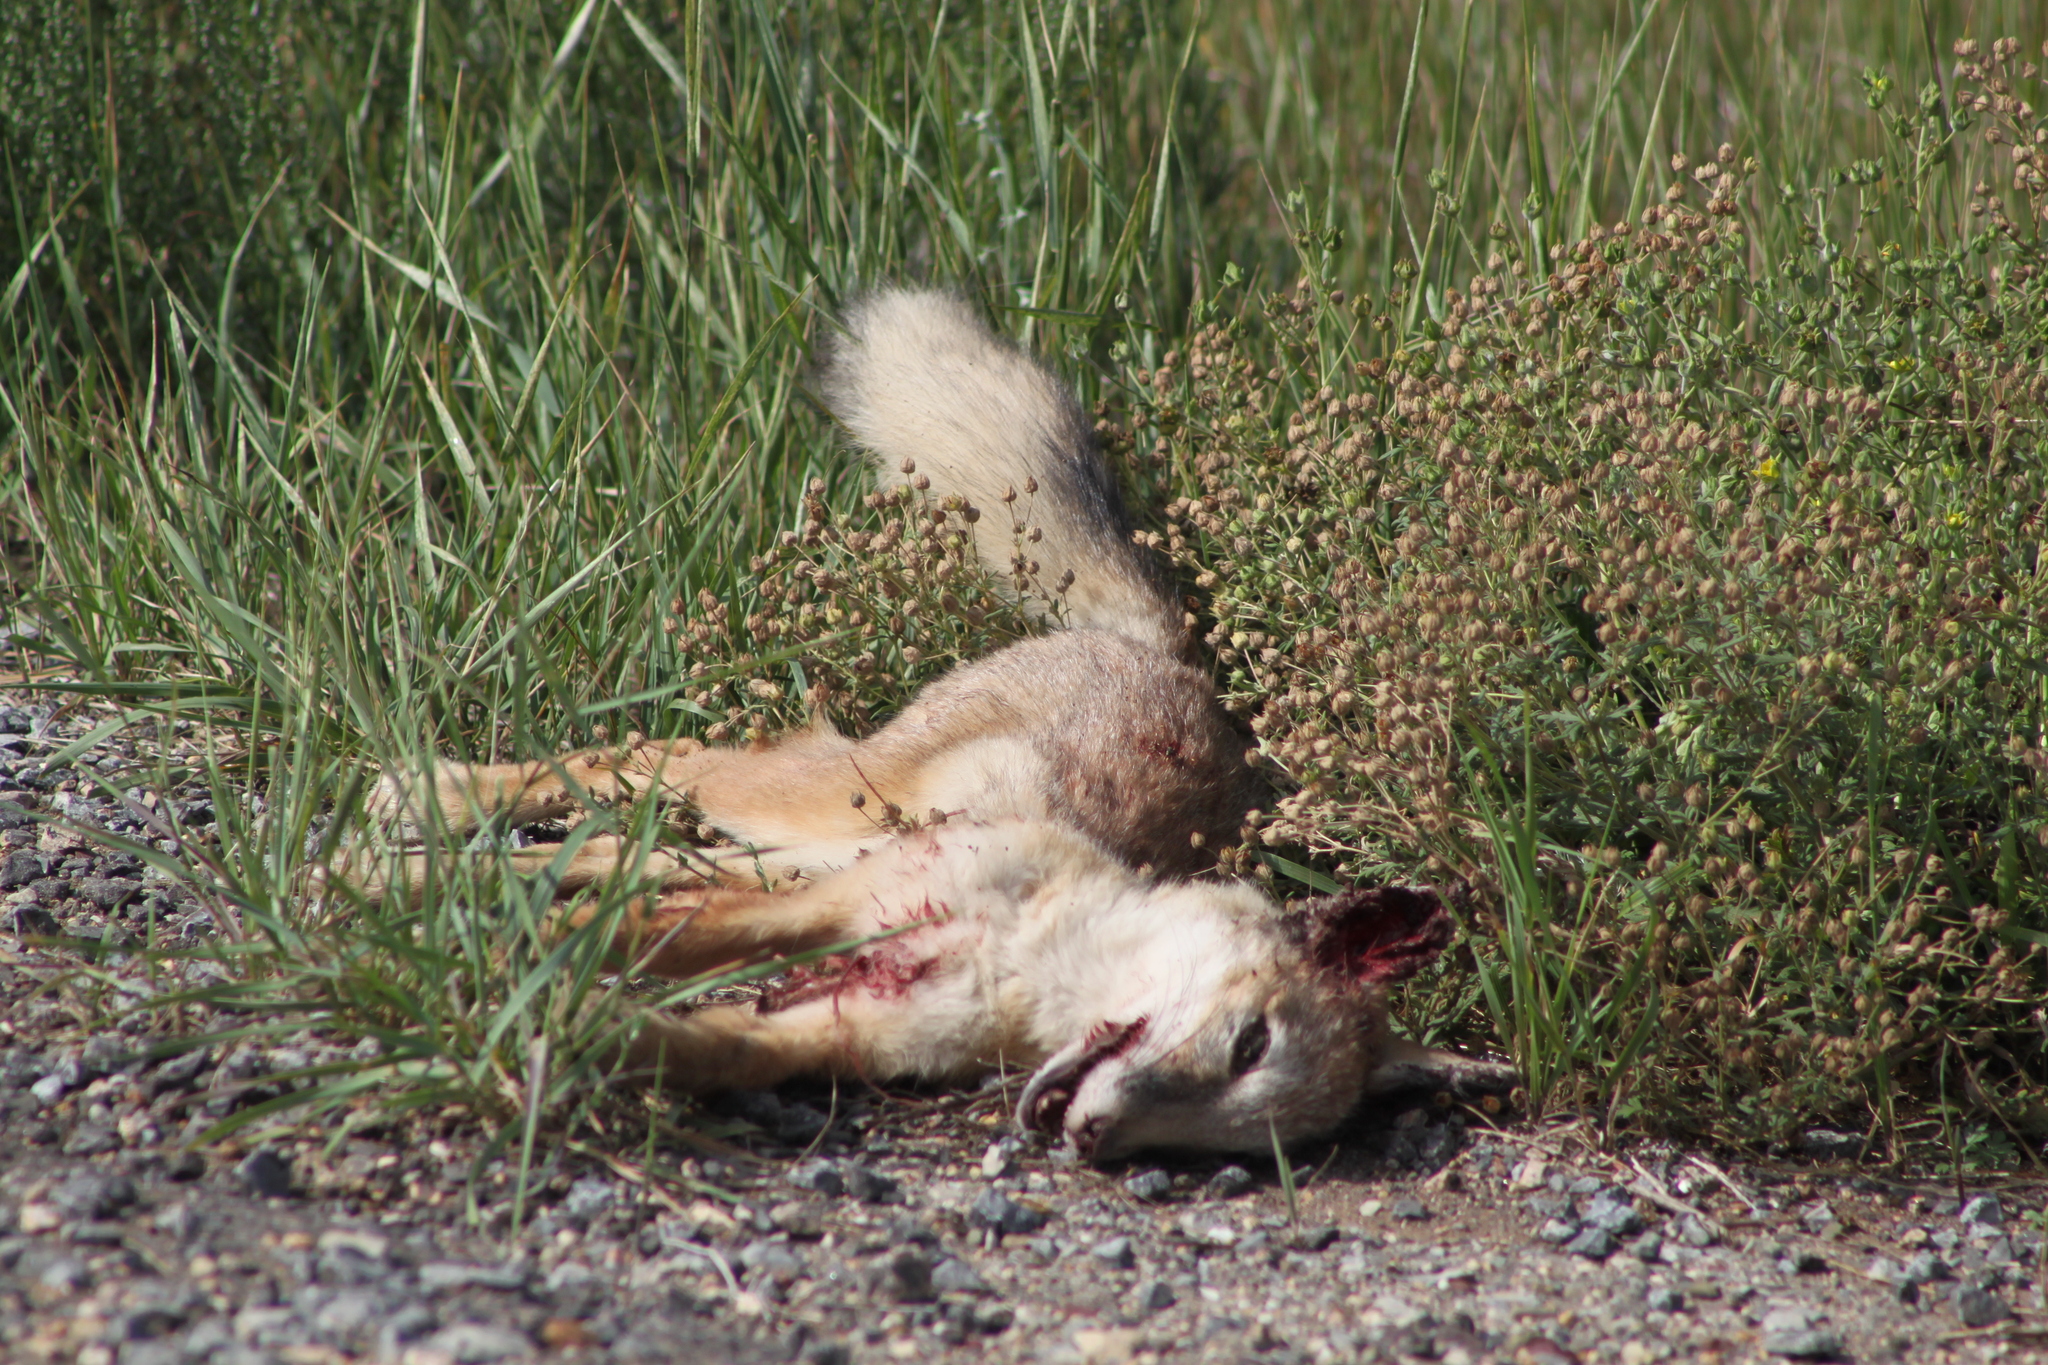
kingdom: Animalia
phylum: Chordata
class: Mammalia
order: Carnivora
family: Canidae
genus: Vulpes
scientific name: Vulpes corsac
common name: Corsac fox
